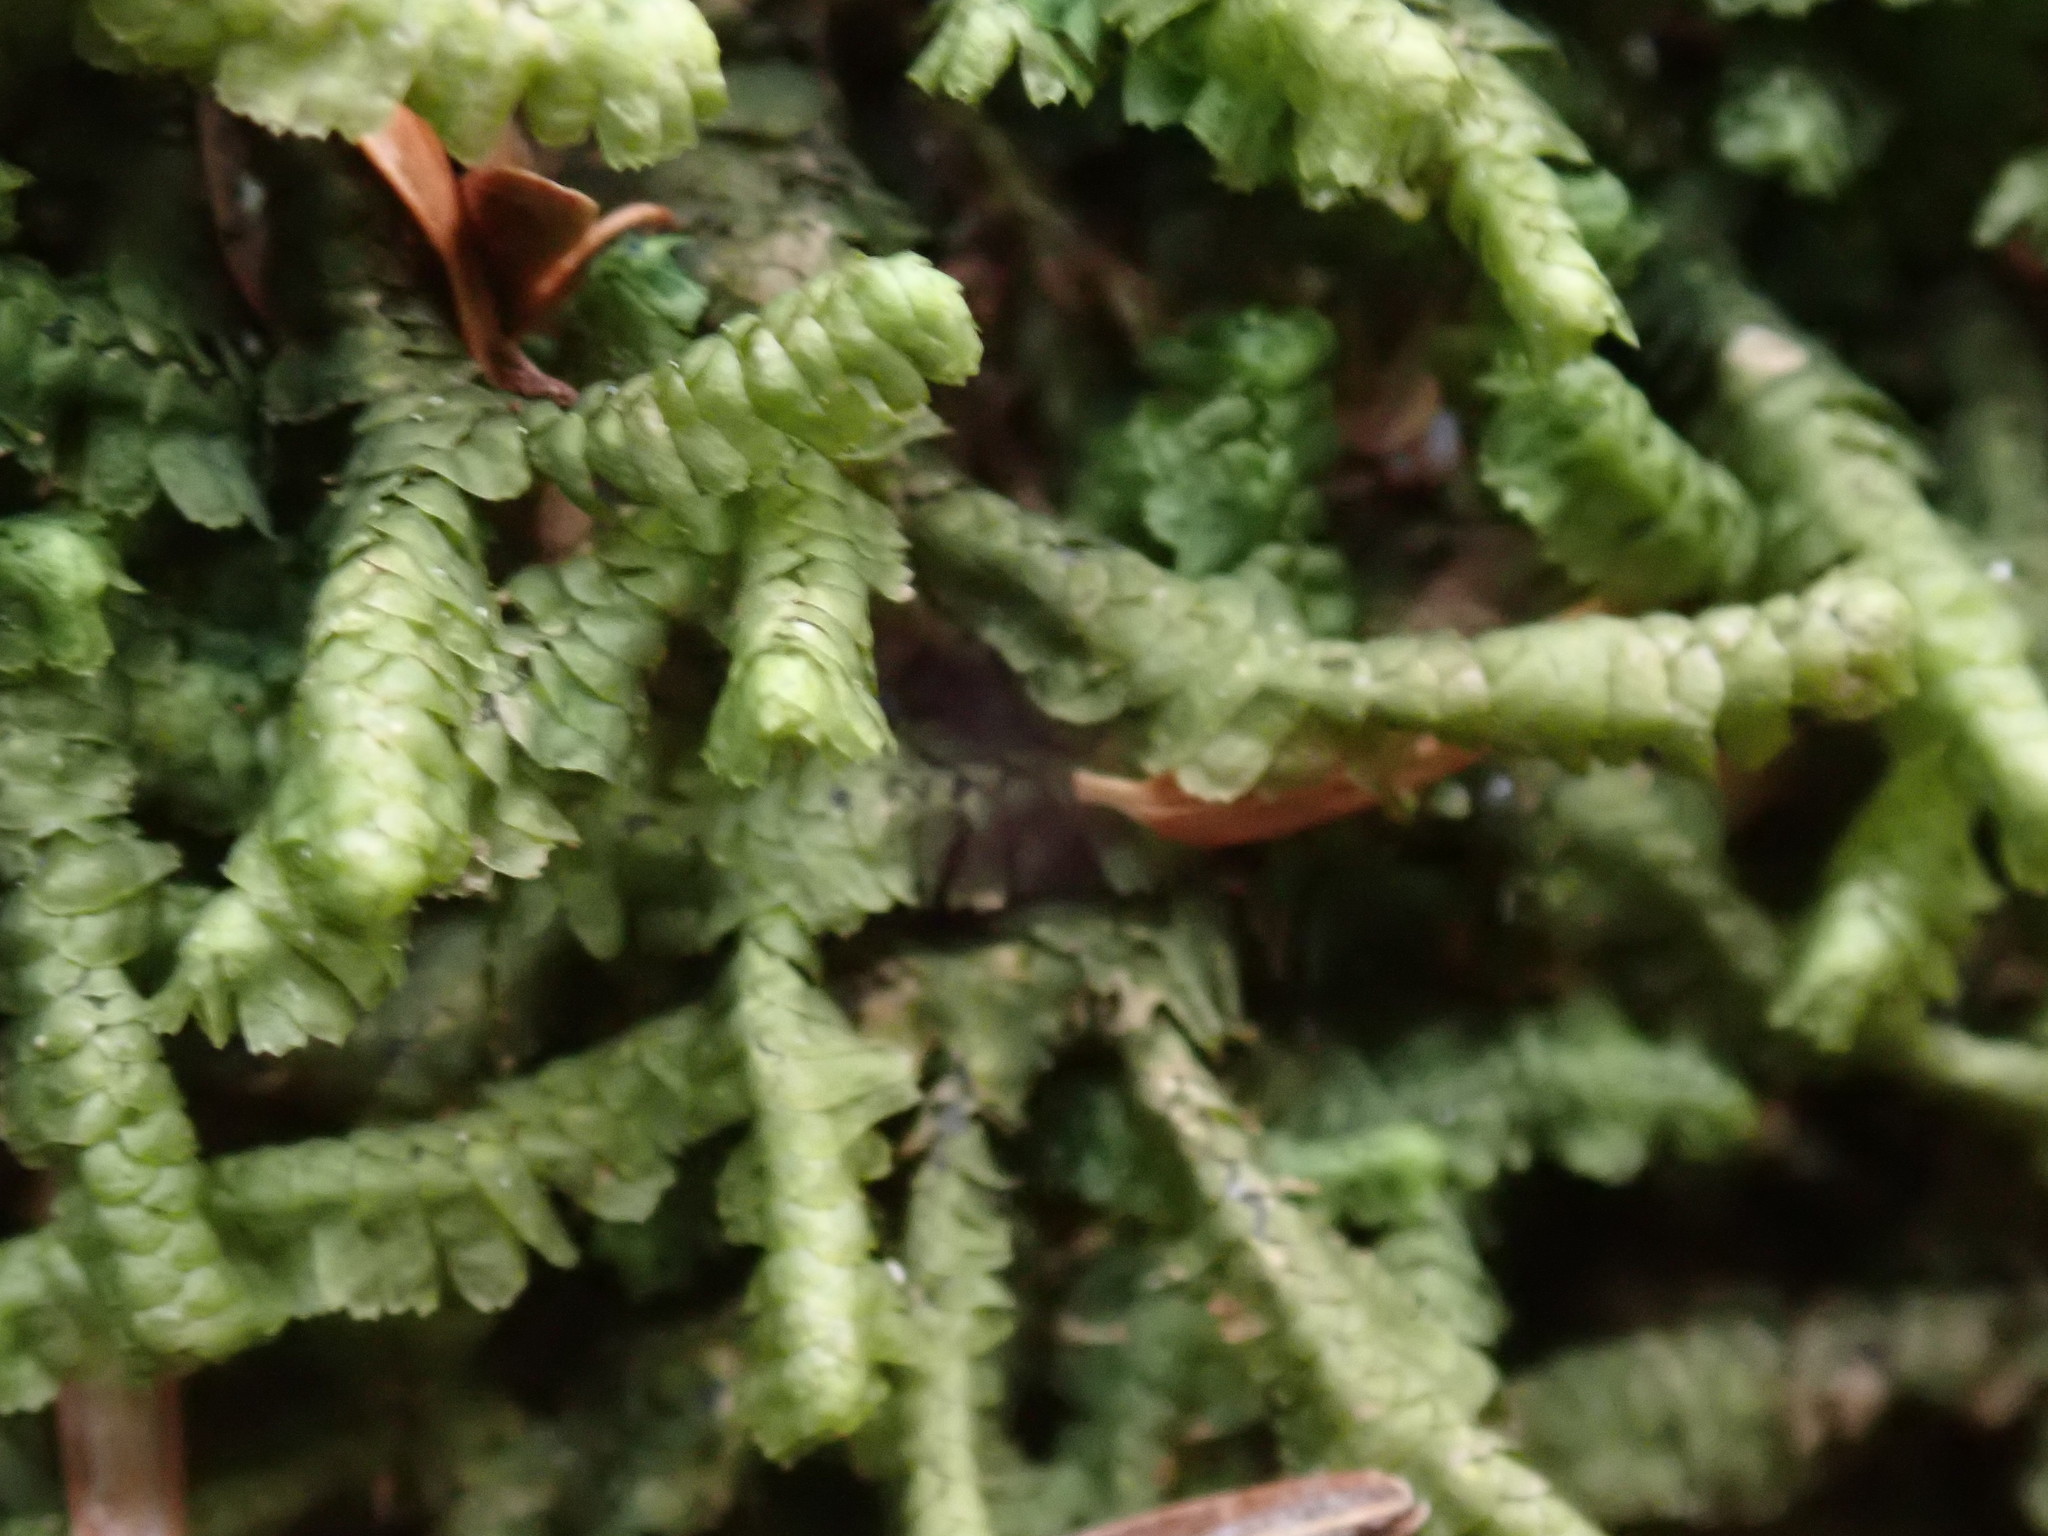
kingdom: Plantae
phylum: Marchantiophyta
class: Jungermanniopsida
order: Jungermanniales
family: Lepidoziaceae
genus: Bazzania
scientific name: Bazzania trilobata
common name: Three-lobed whipwort
